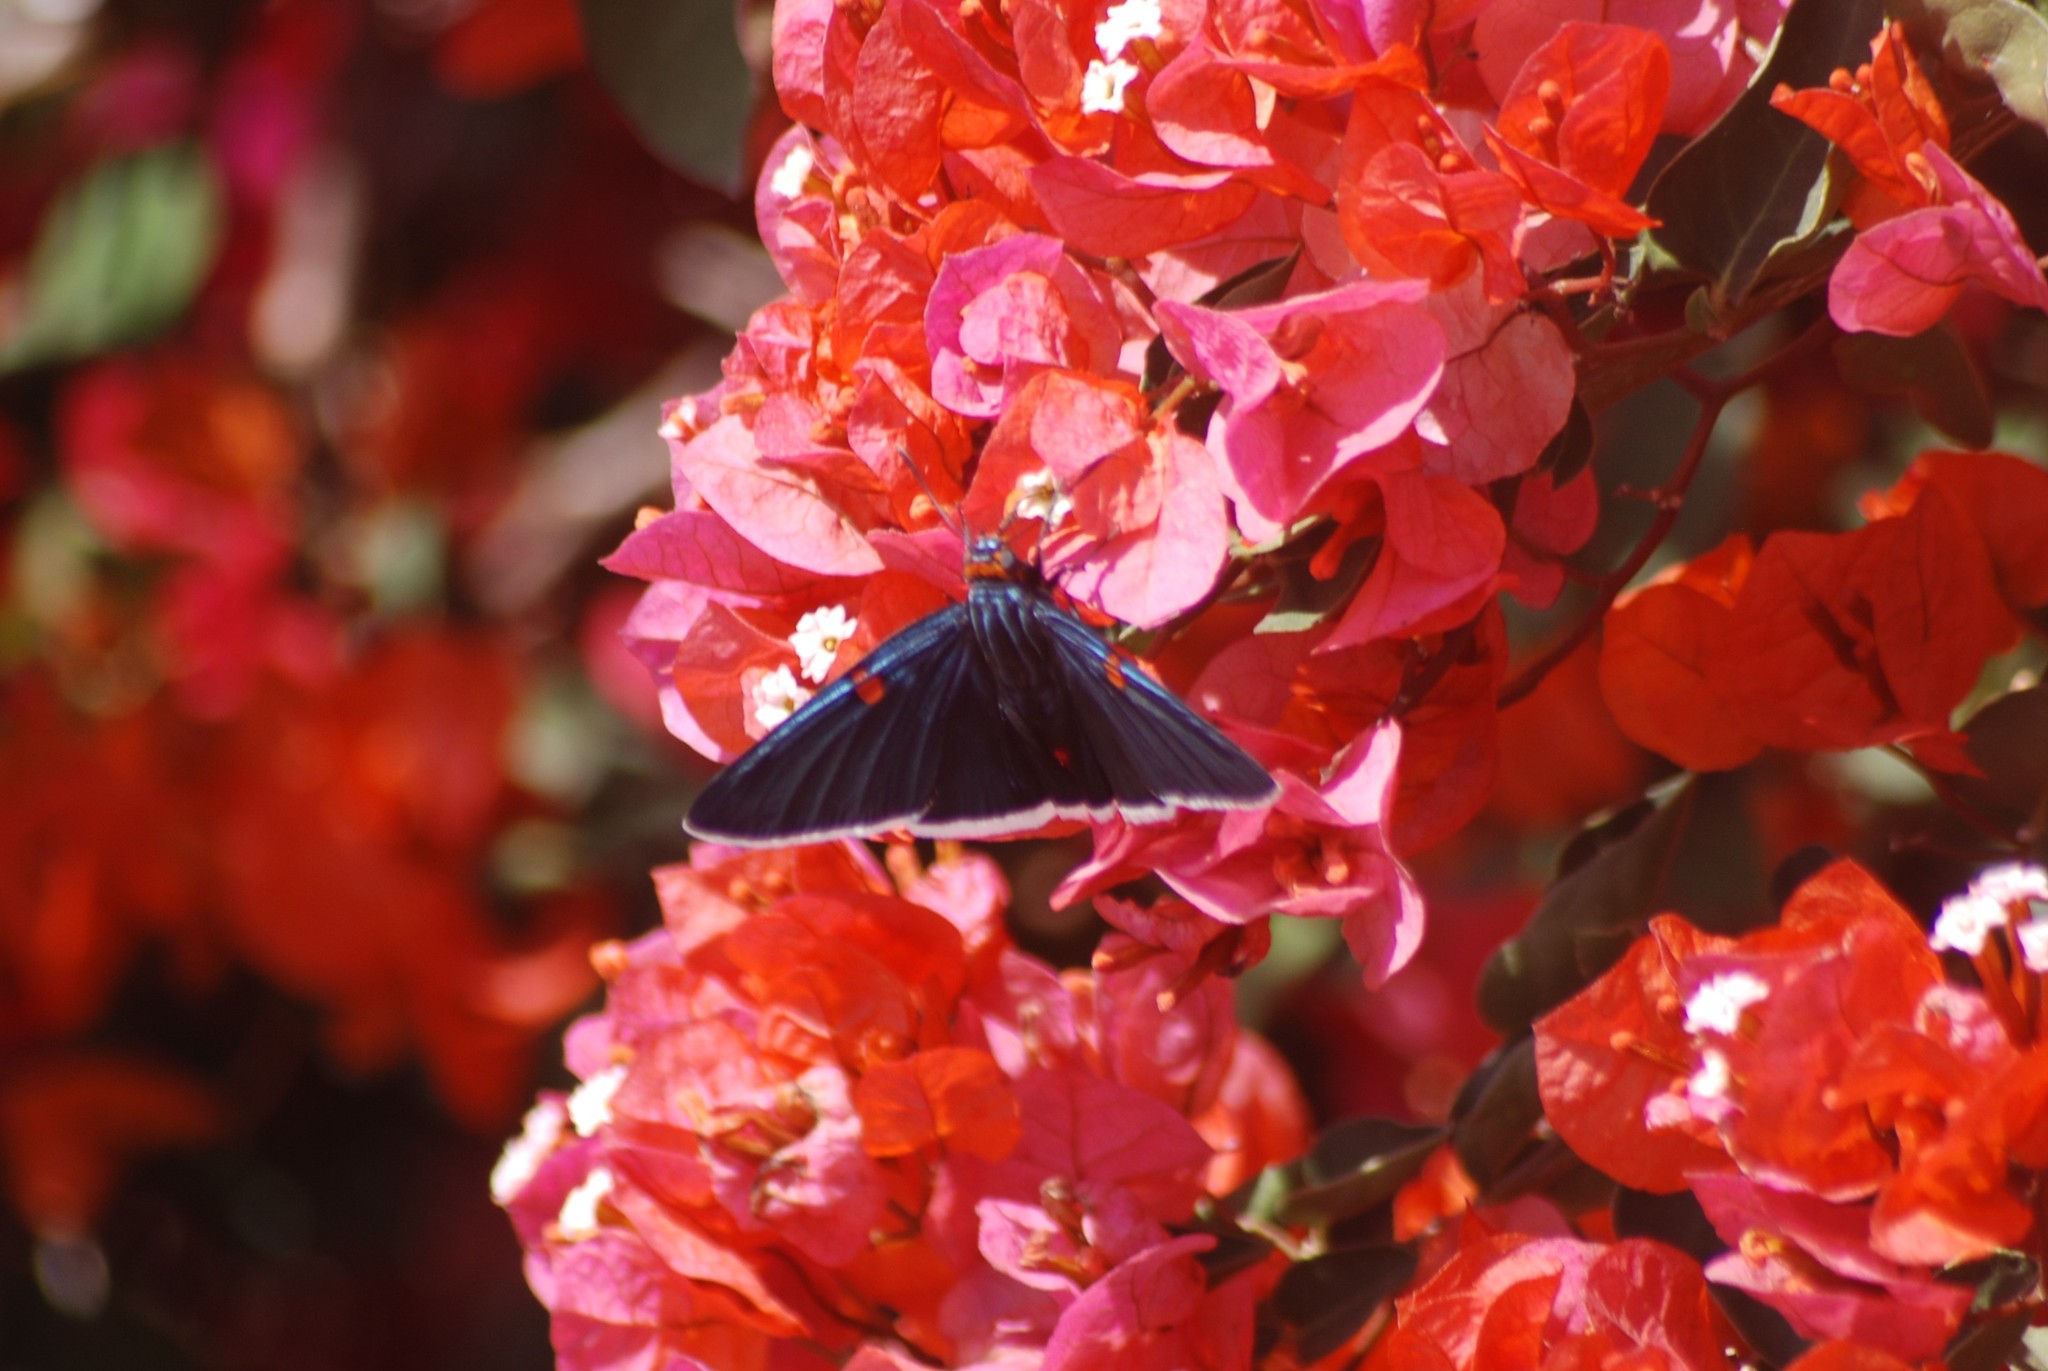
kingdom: Animalia
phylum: Arthropoda
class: Insecta
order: Lepidoptera
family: Hesperiidae
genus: Phocides
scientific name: Phocides lilea
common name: Guava skipper
